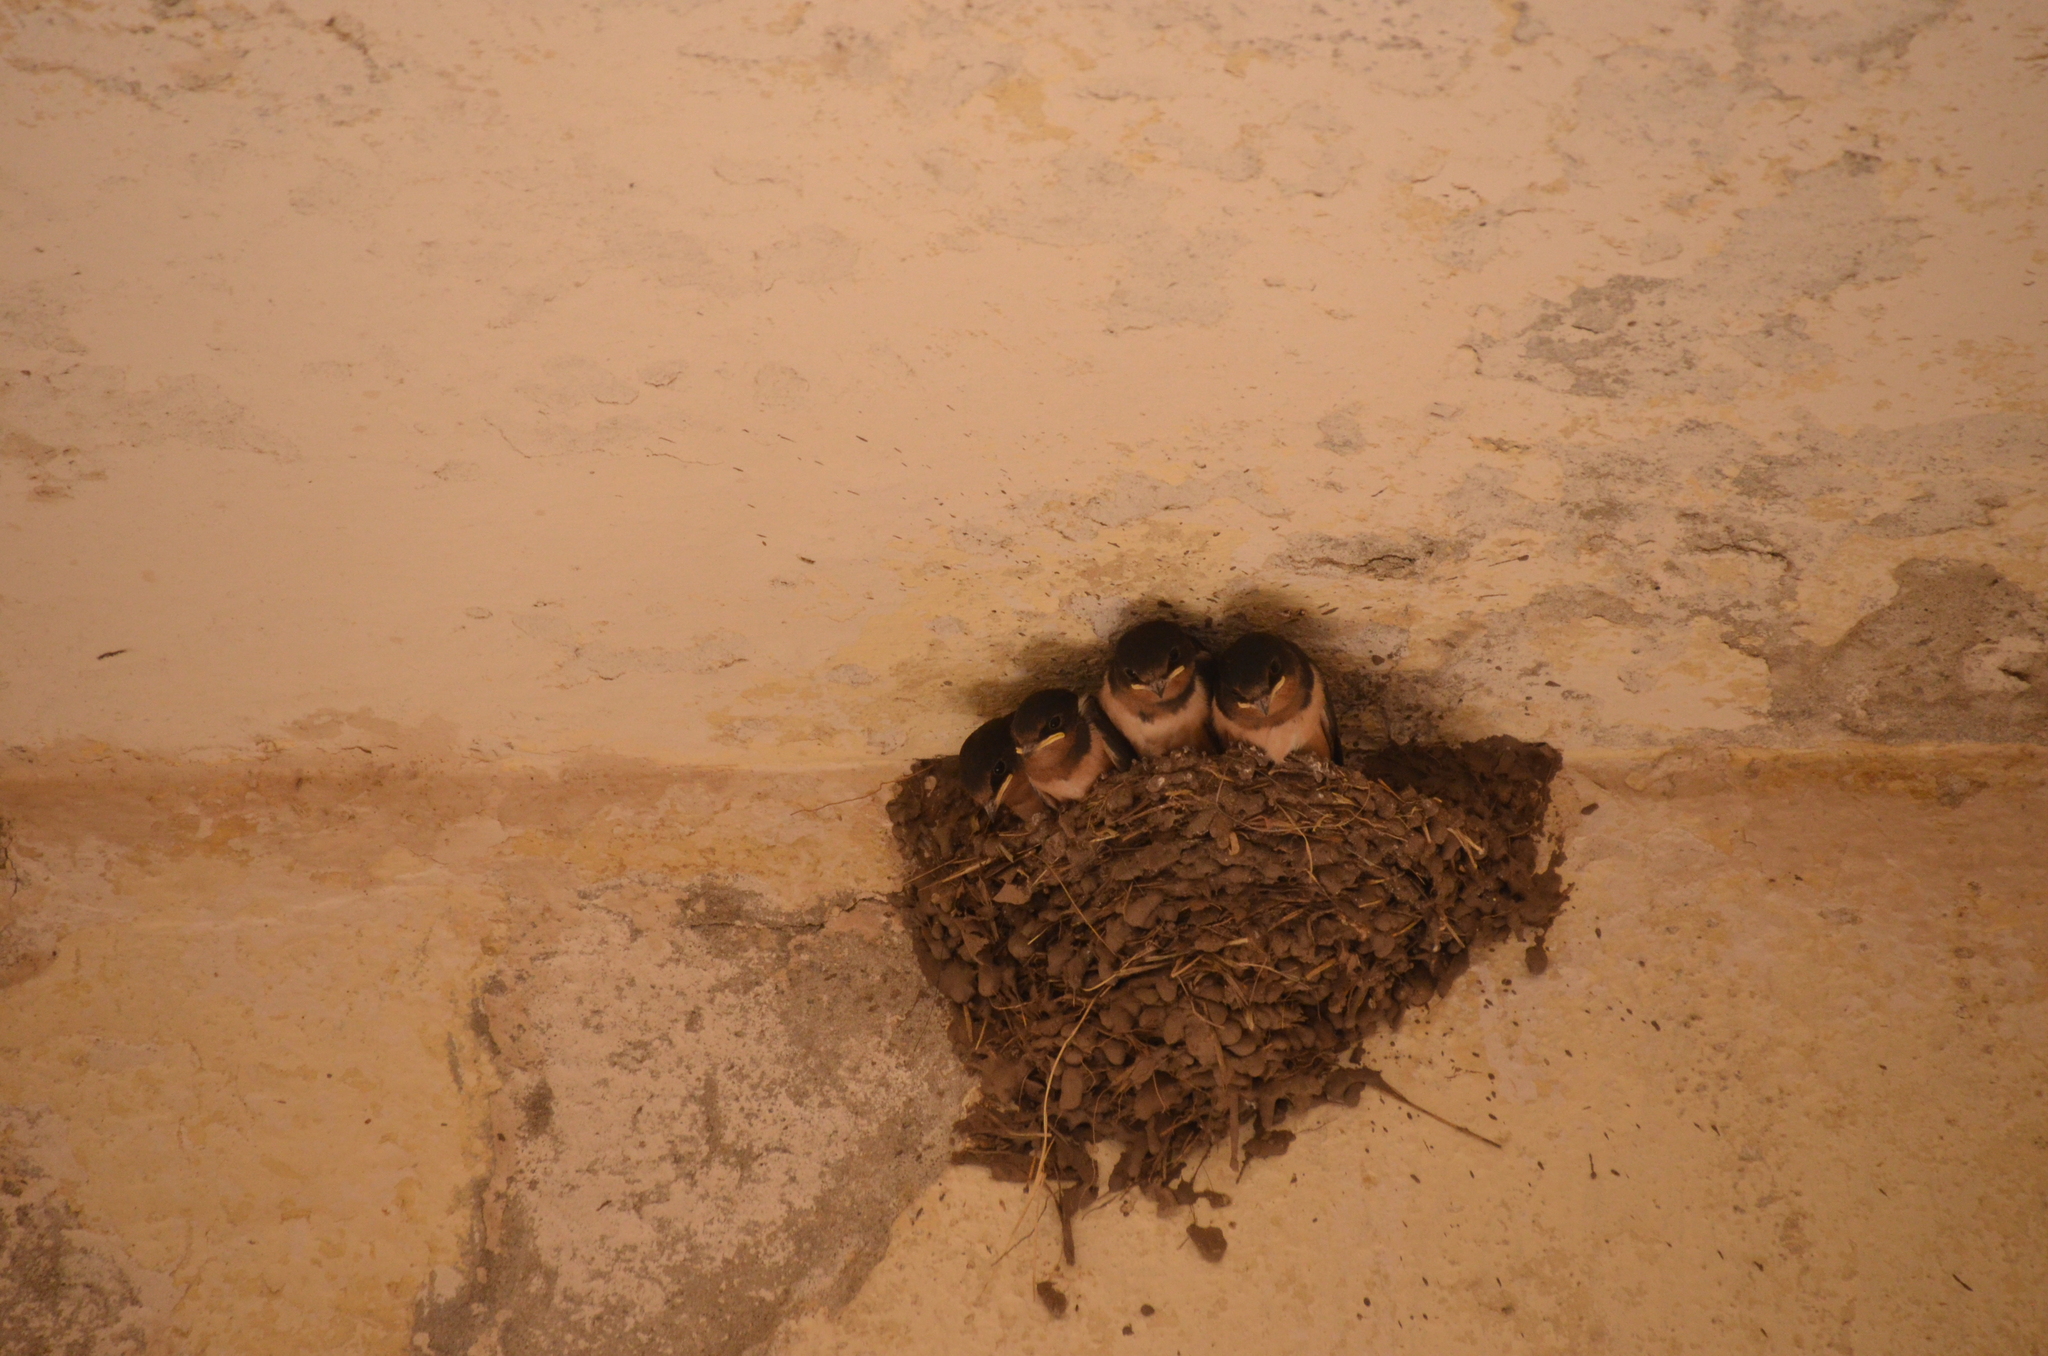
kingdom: Animalia
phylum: Chordata
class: Aves
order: Passeriformes
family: Hirundinidae
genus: Hirundo
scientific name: Hirundo rustica
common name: Barn swallow
